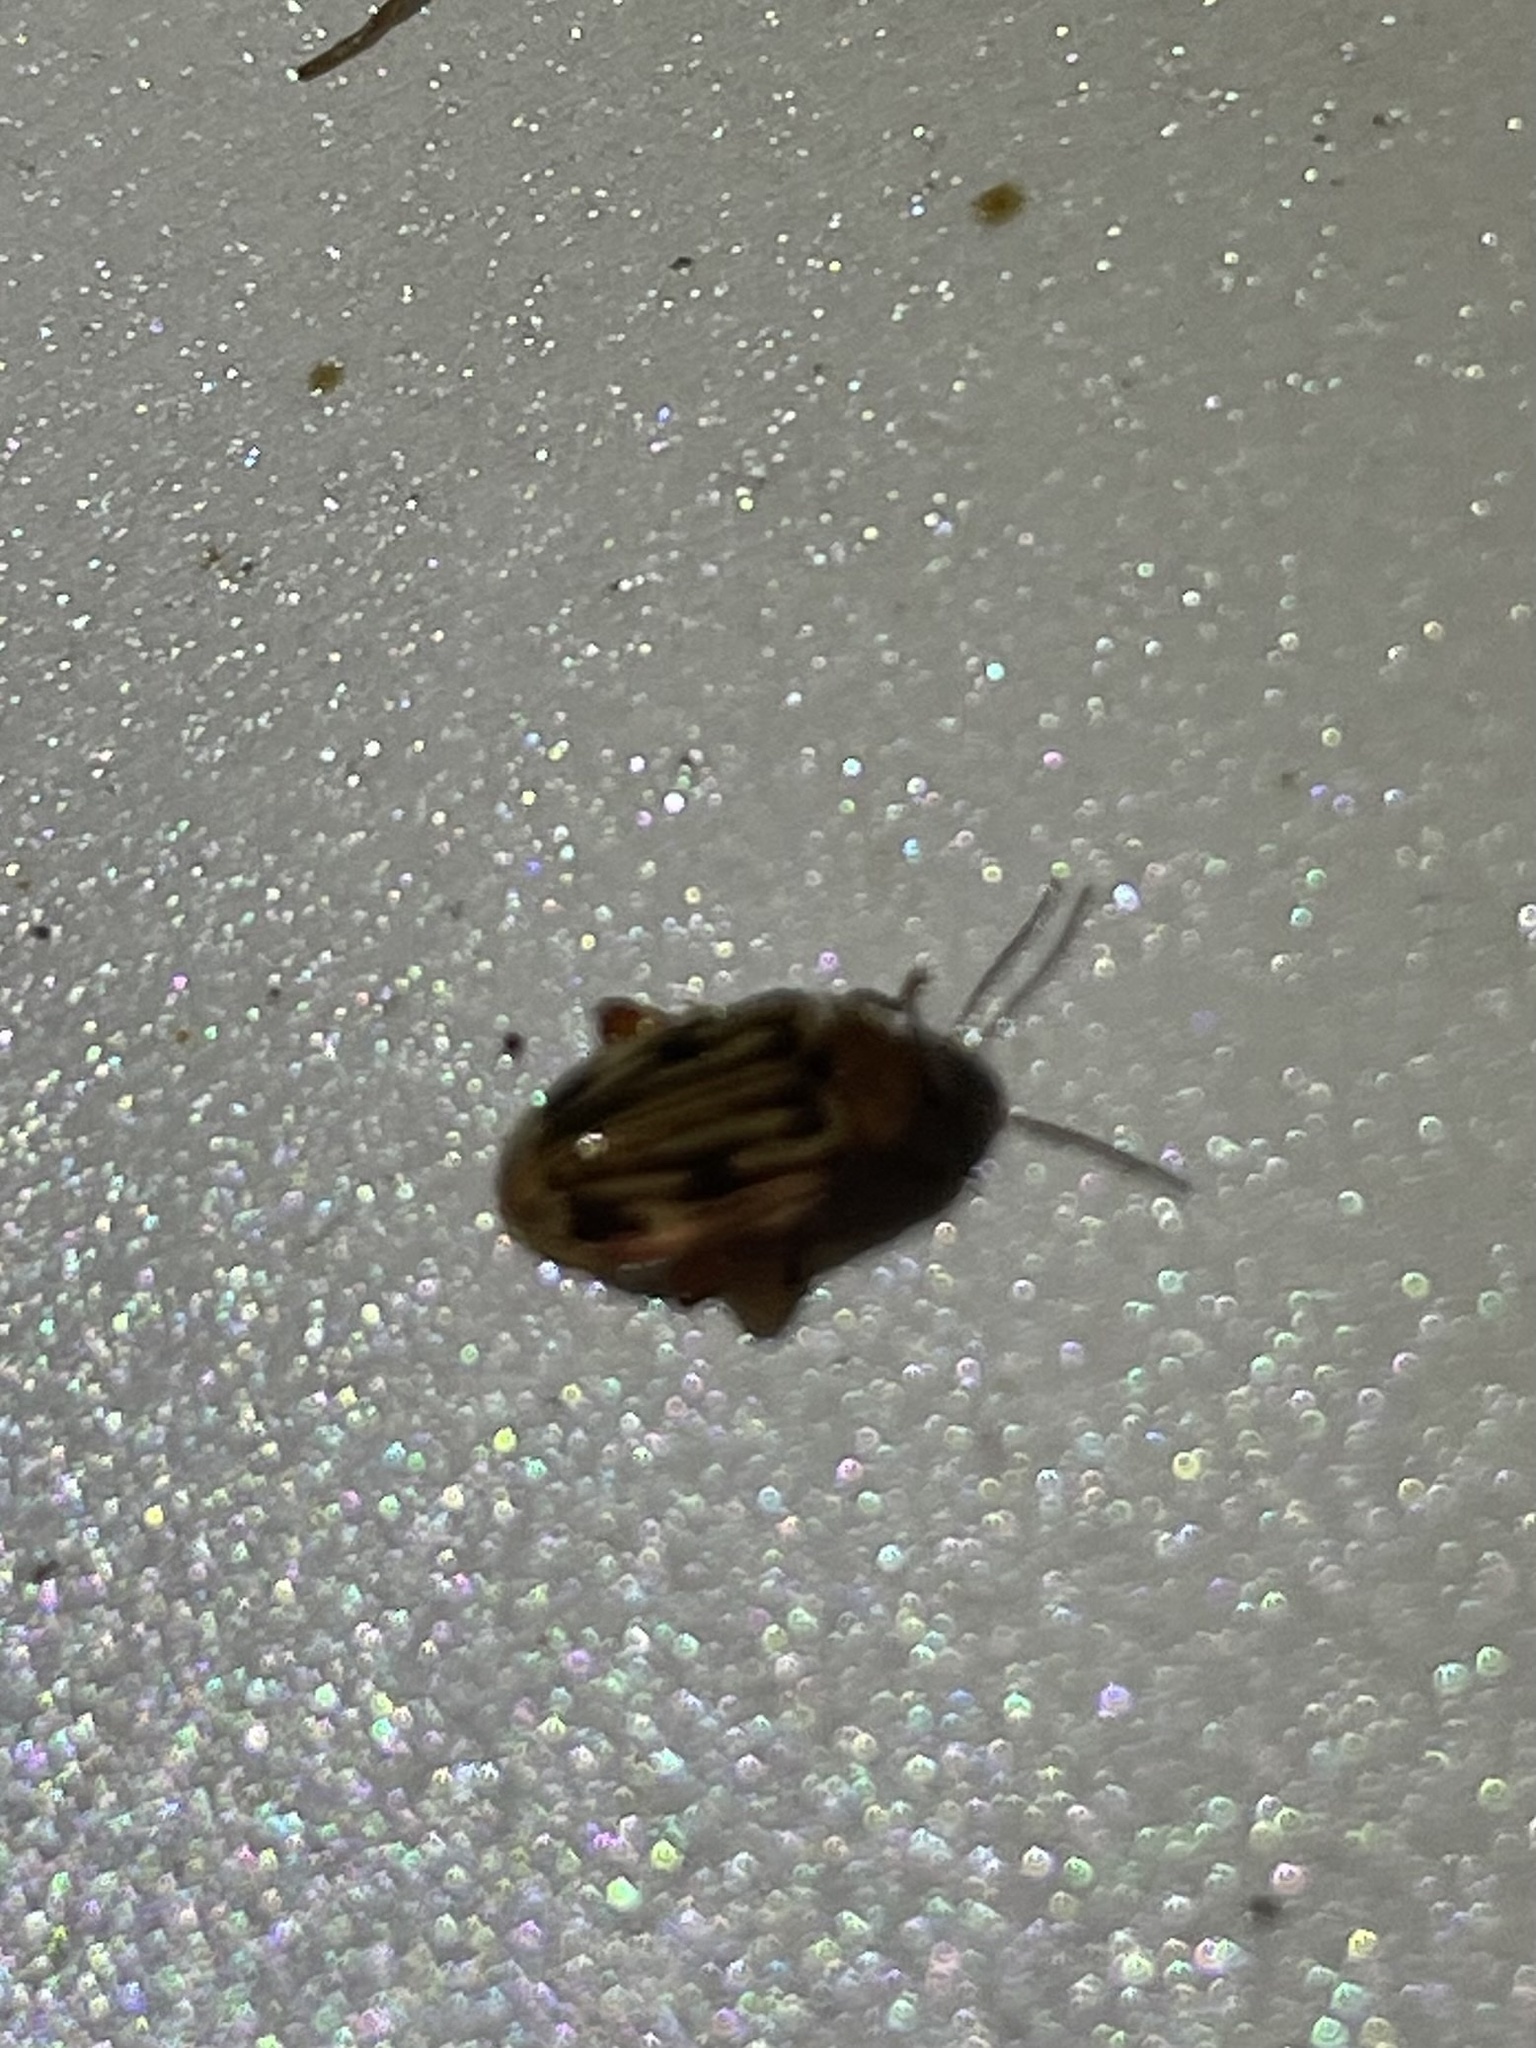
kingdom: Animalia
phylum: Arthropoda
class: Insecta
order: Coleoptera
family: Scirtidae
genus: Ora
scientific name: Ora troberti
